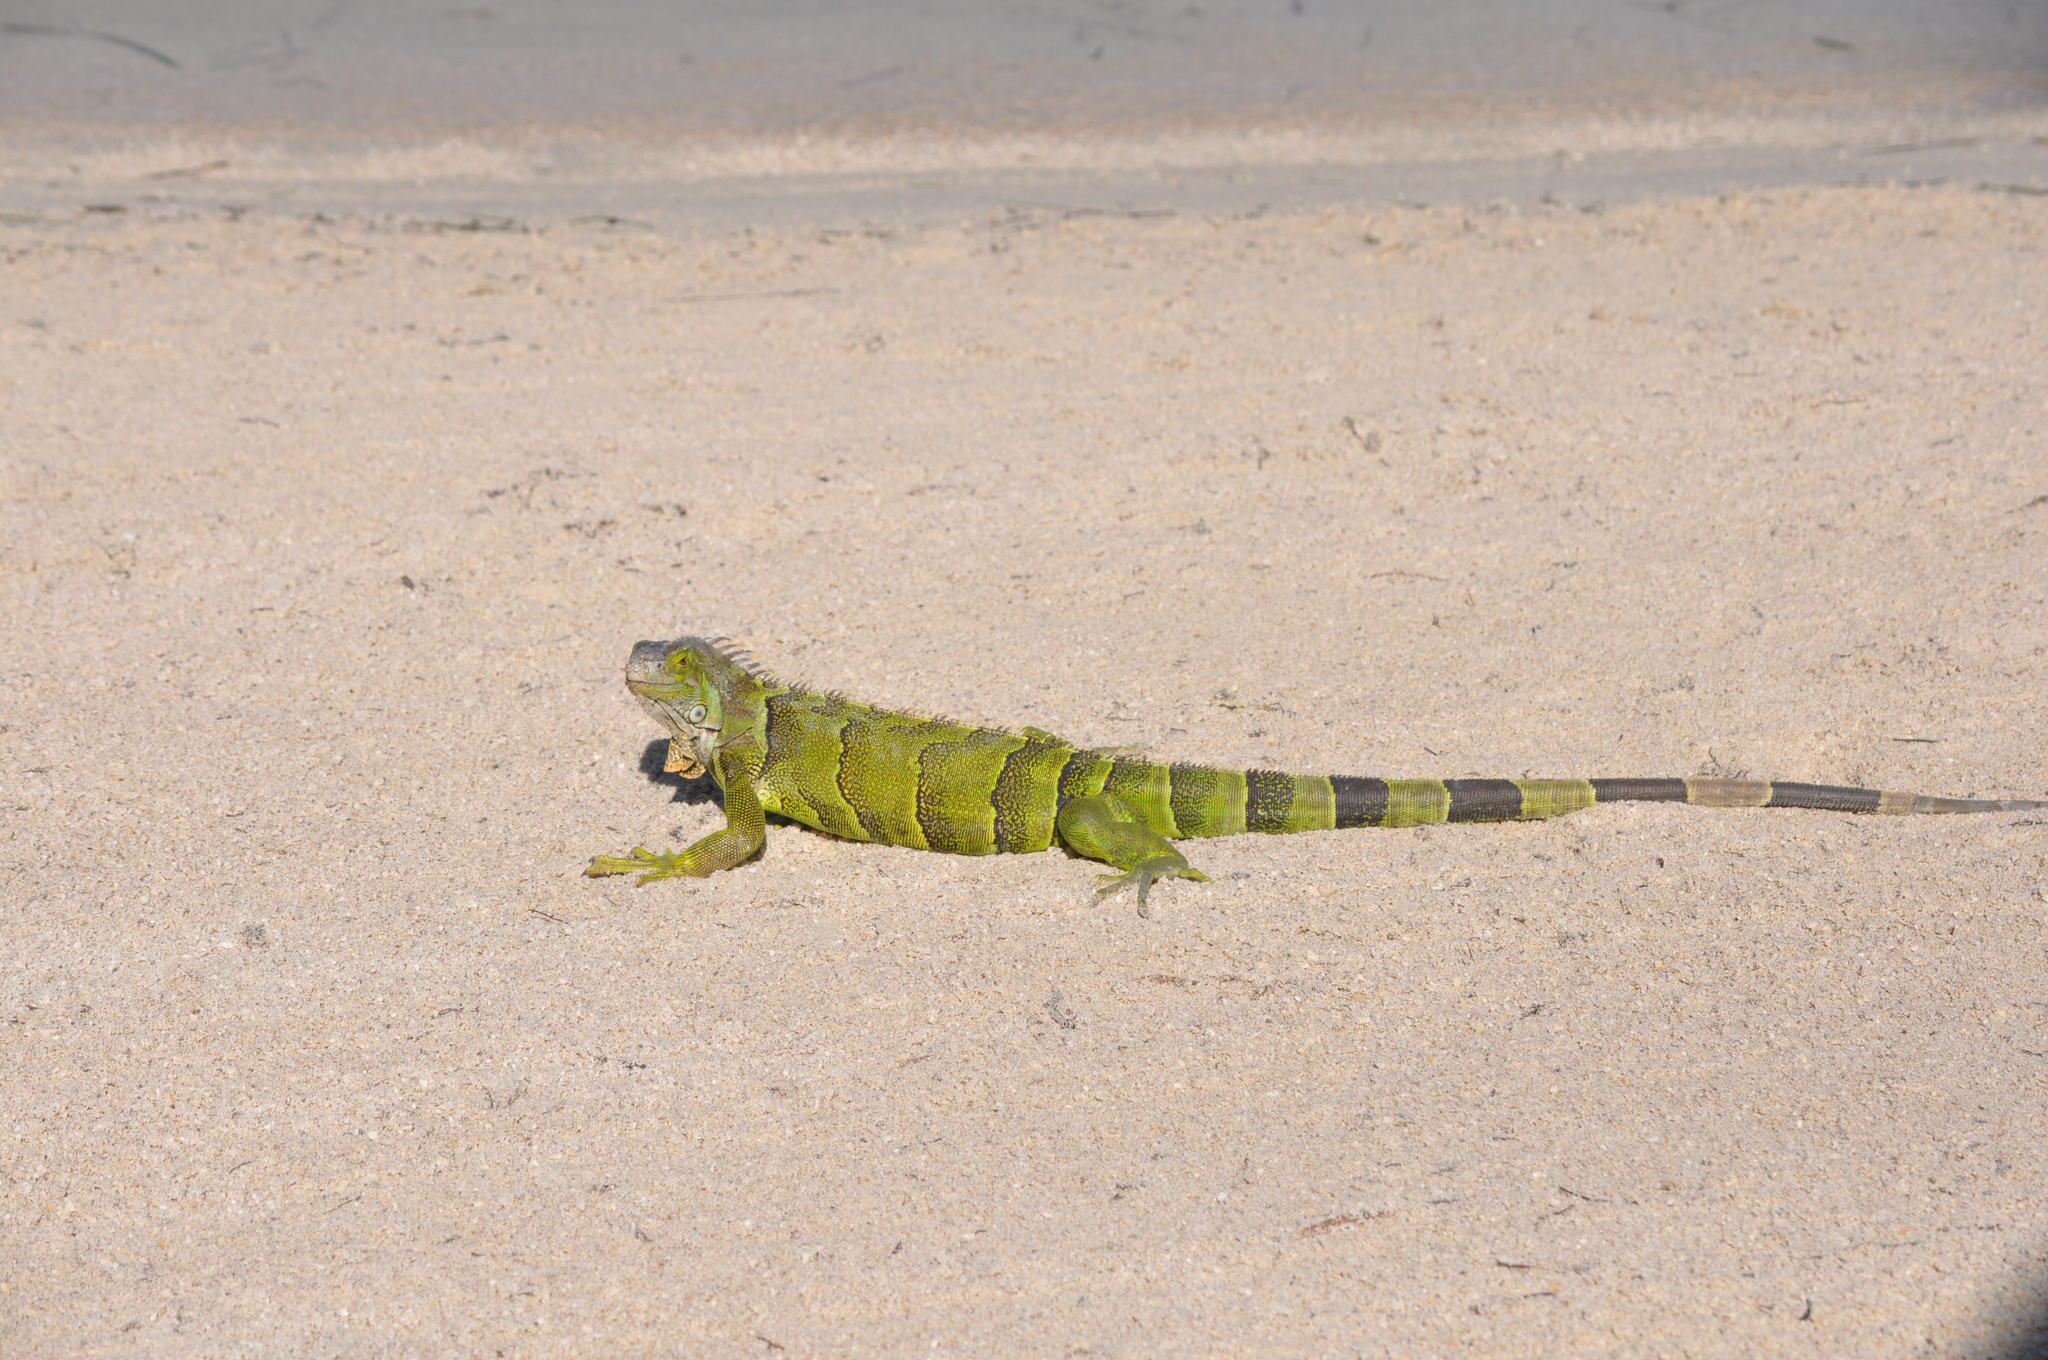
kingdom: Animalia
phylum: Chordata
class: Squamata
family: Iguanidae
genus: Iguana
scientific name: Iguana iguana
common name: Green iguana
